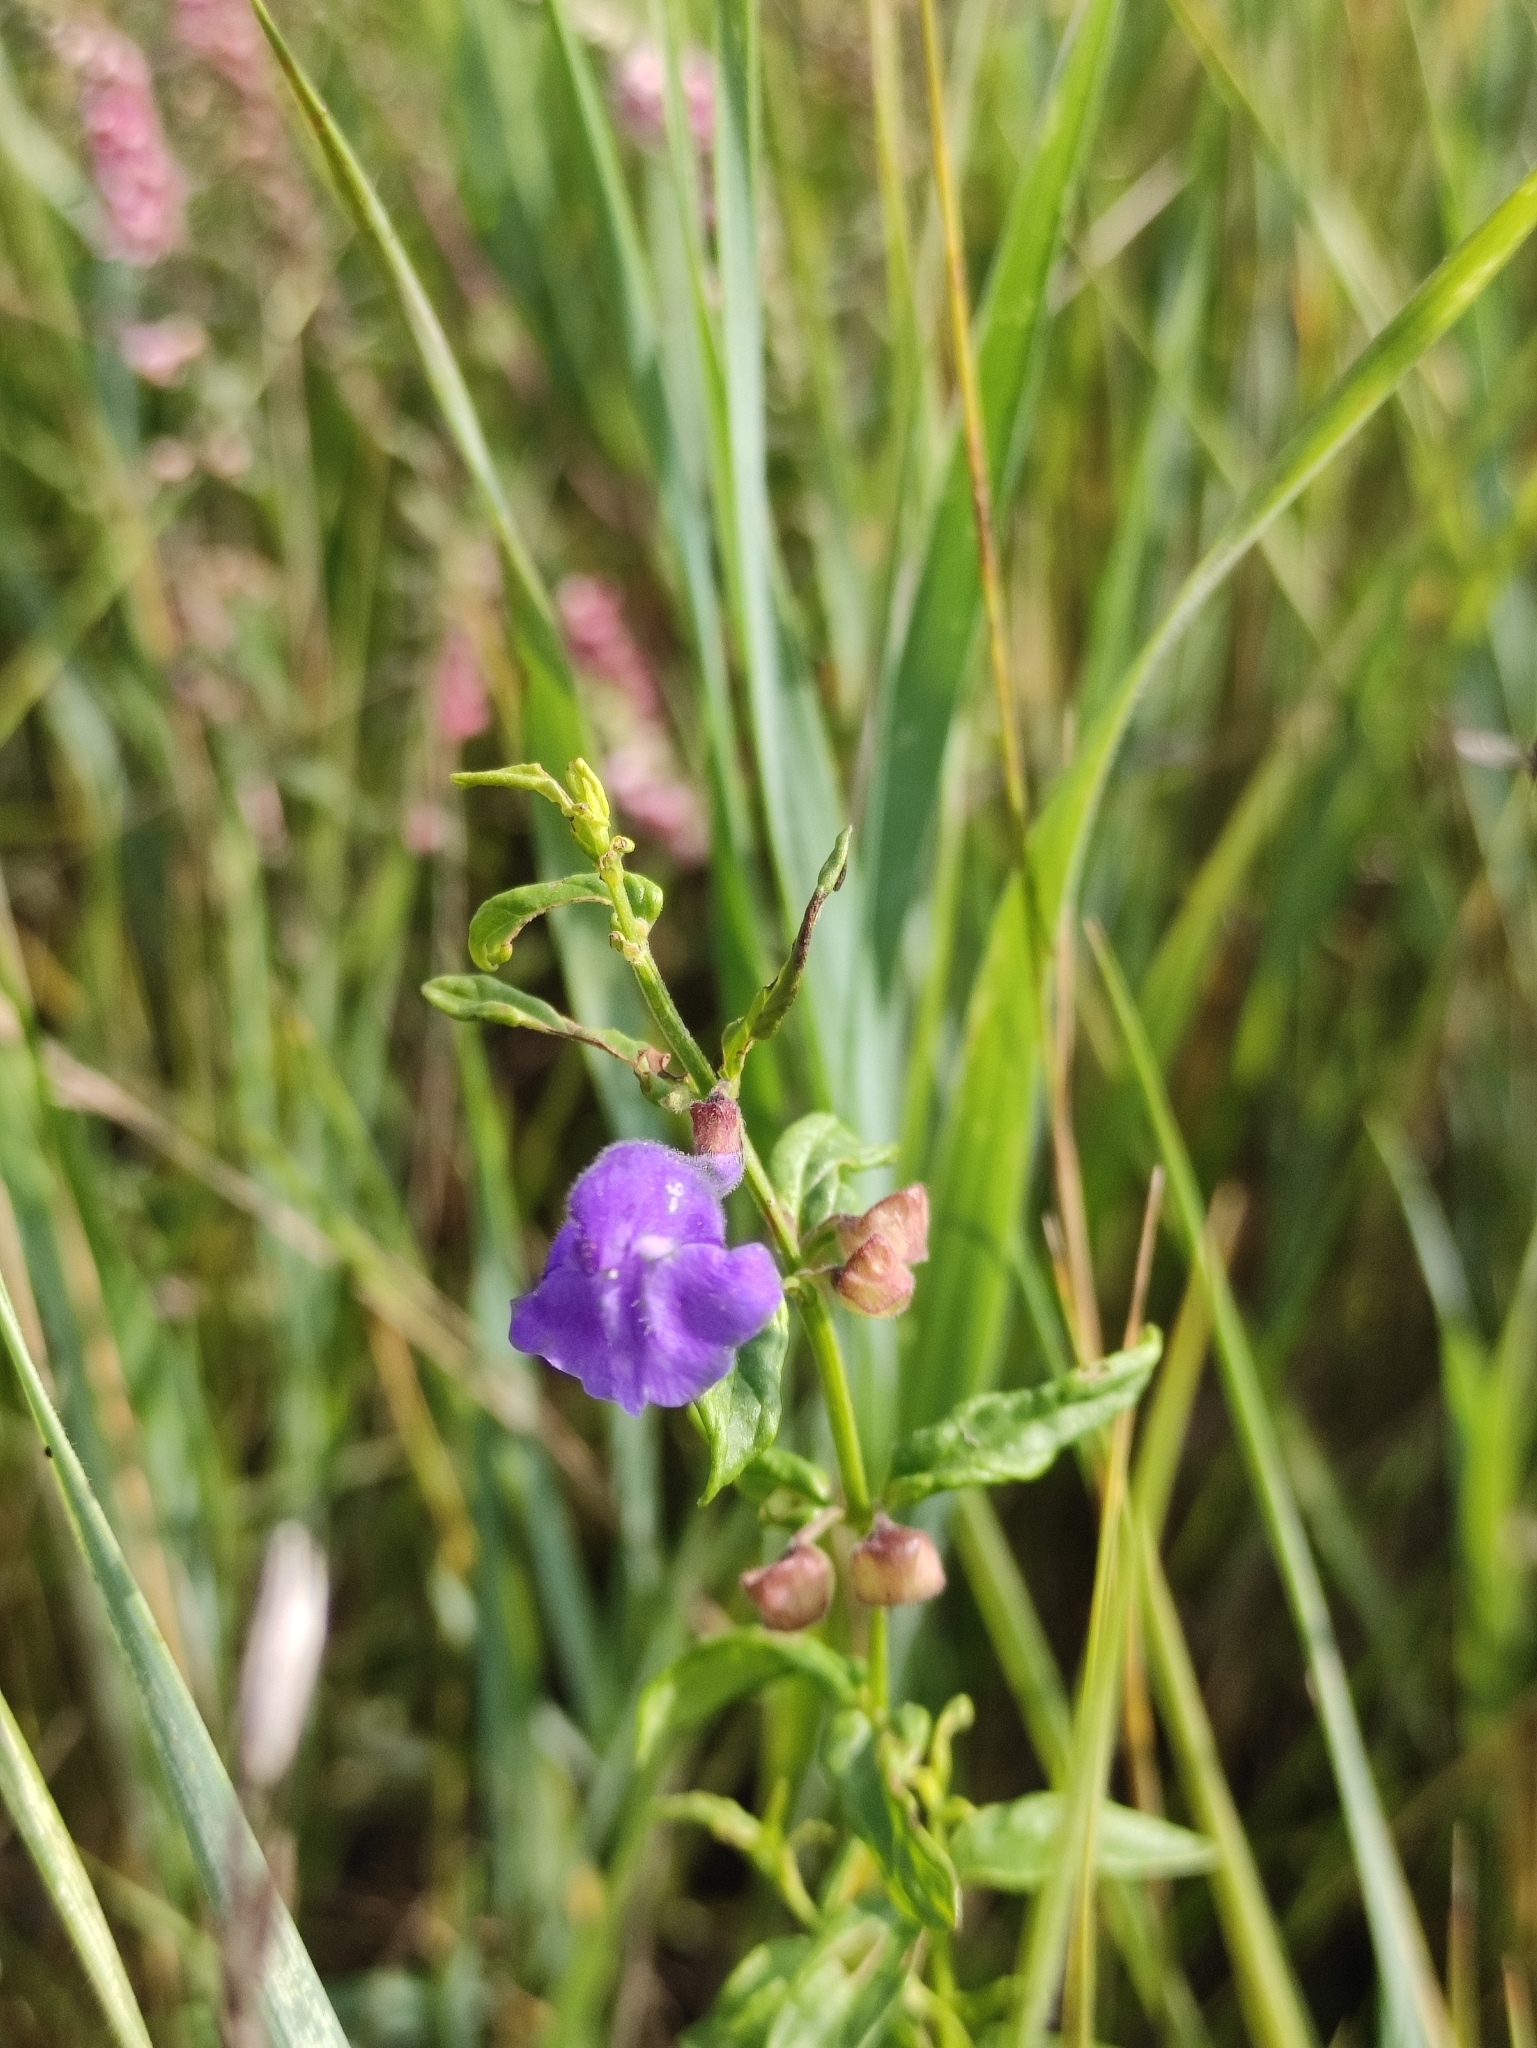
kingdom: Plantae
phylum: Tracheophyta
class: Magnoliopsida
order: Lamiales
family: Lamiaceae
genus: Scutellaria
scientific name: Scutellaria scordiifolia
